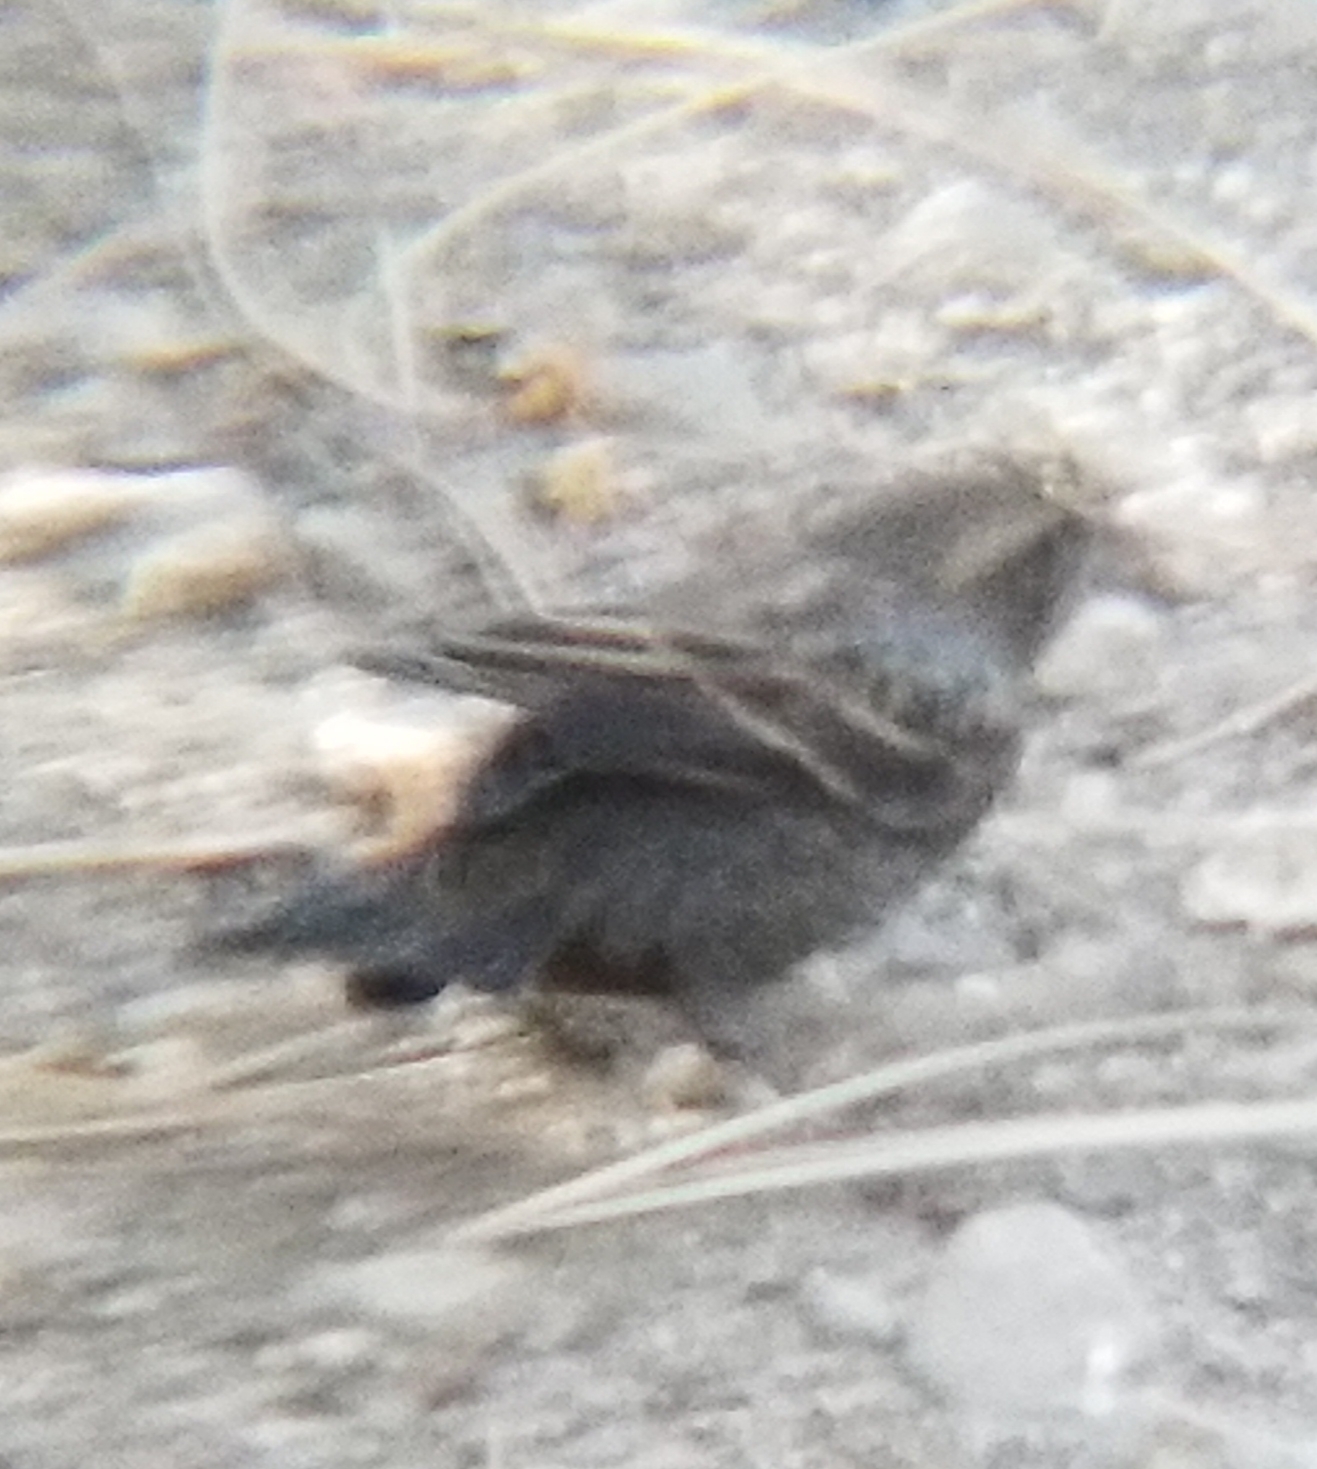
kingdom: Animalia
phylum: Chordata
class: Aves
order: Passeriformes
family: Icteridae
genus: Agelaius
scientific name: Agelaius phoeniceus
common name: Red-winged blackbird
